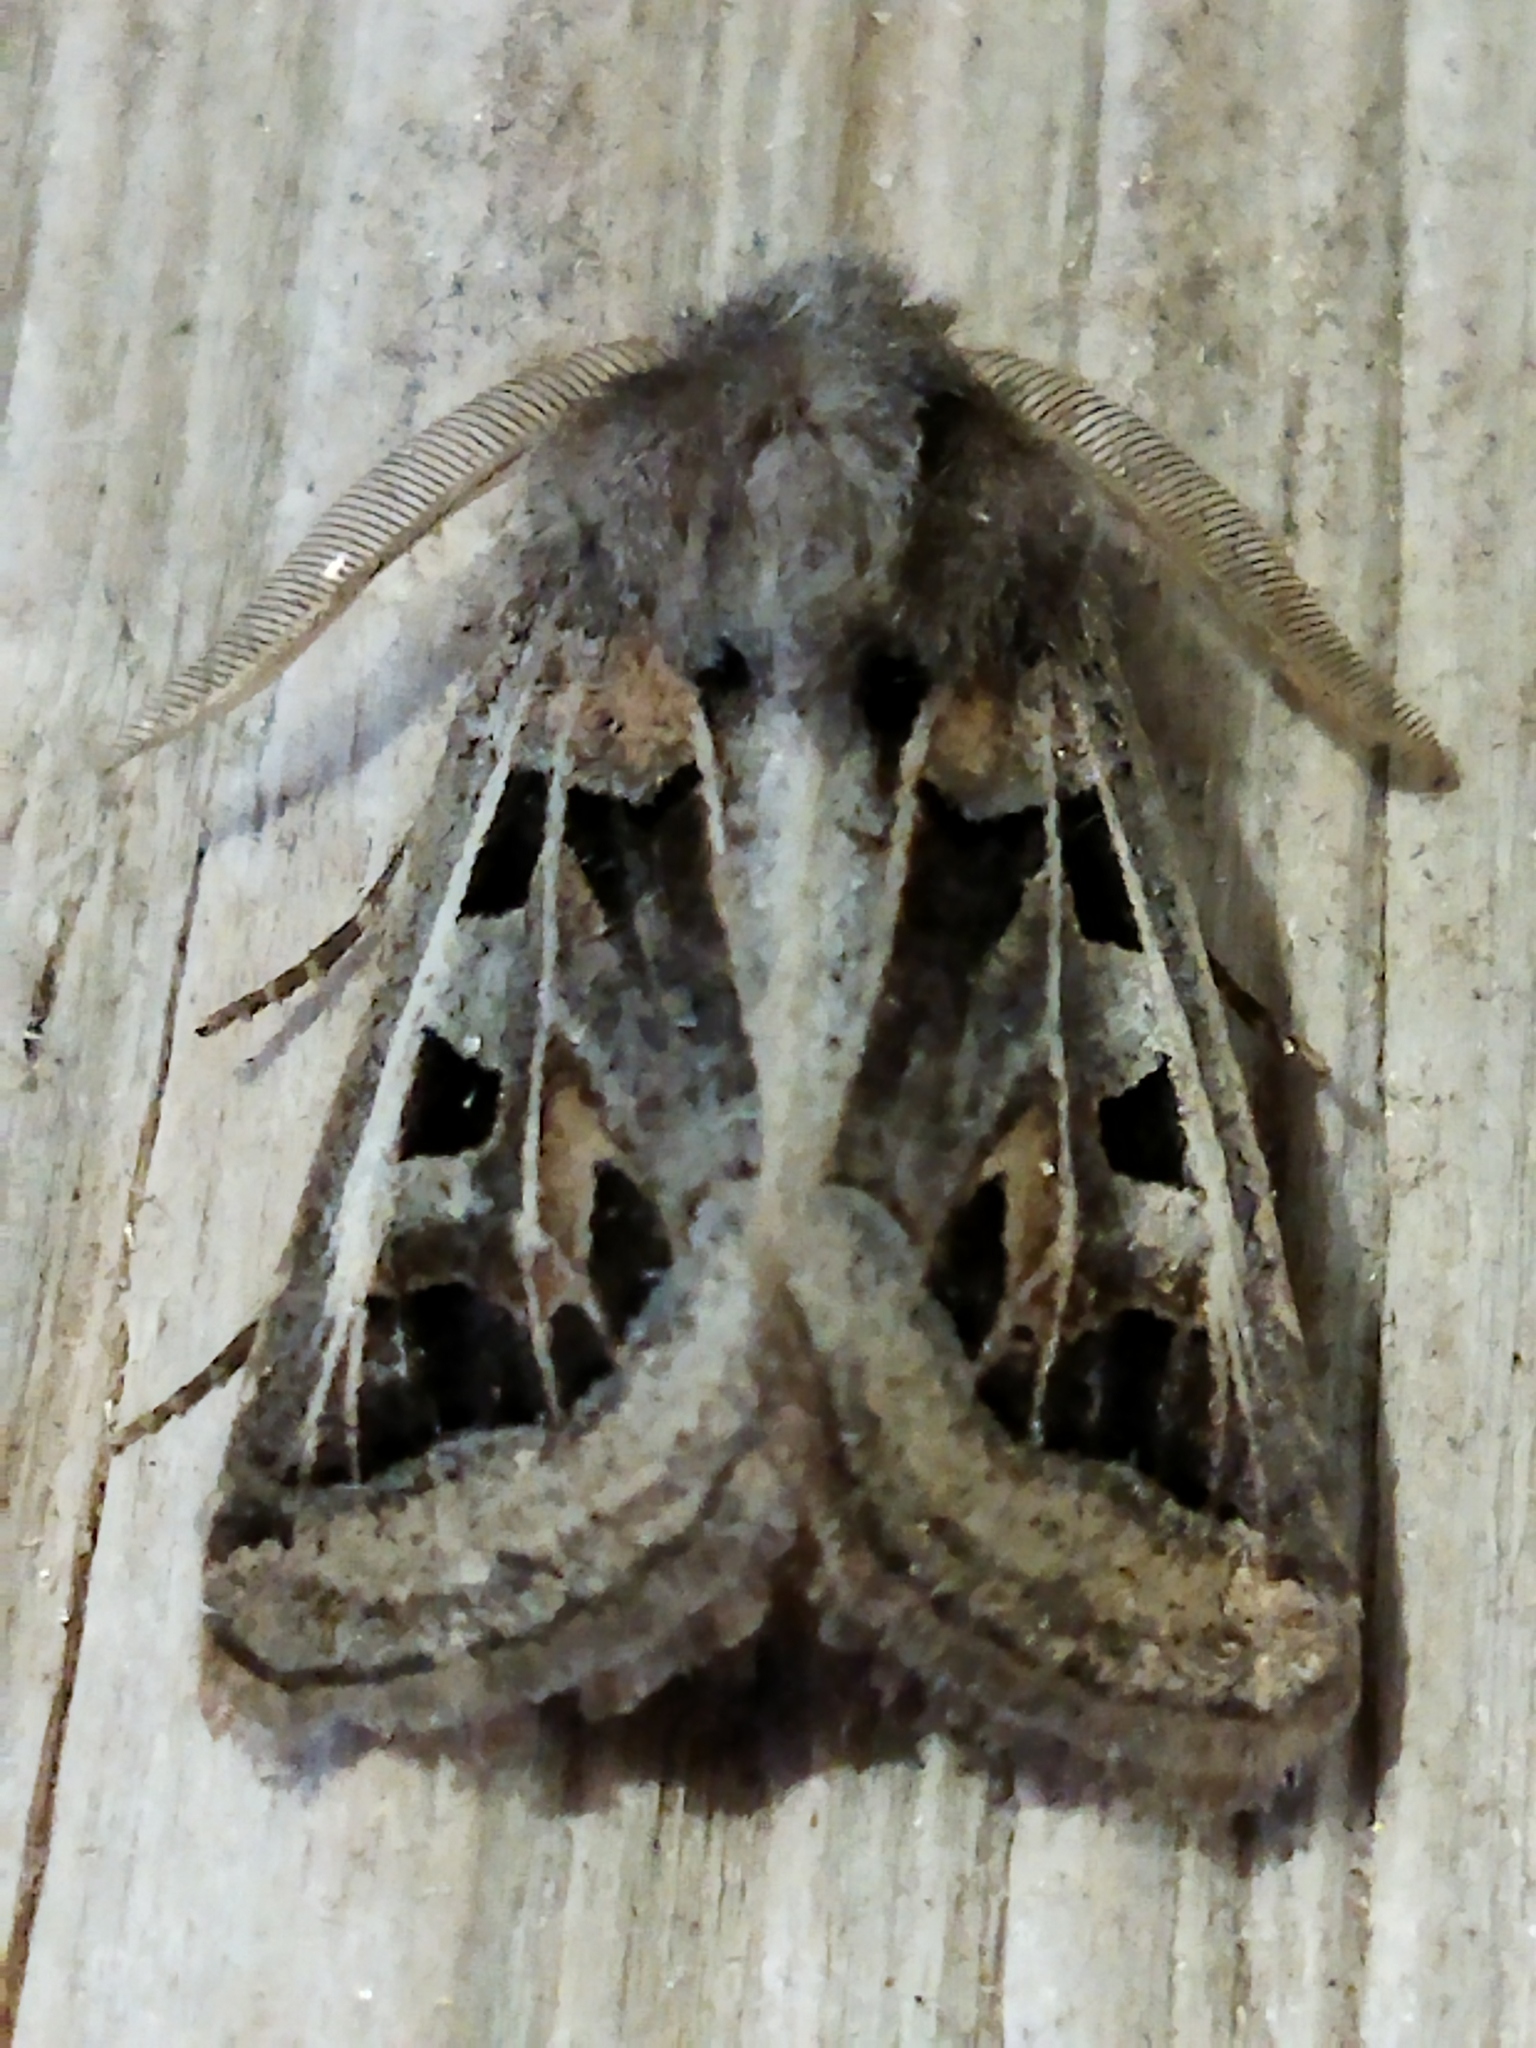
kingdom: Animalia
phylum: Arthropoda
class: Insecta
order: Lepidoptera
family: Noctuidae
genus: Episema
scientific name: Episema glaucina
